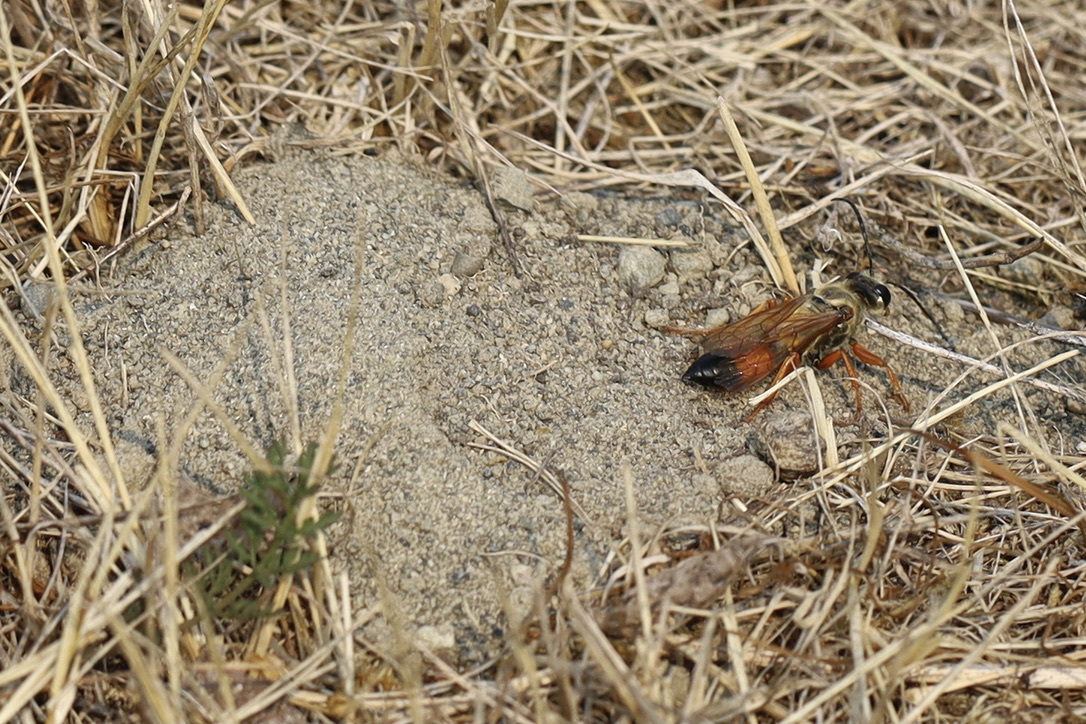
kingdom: Animalia
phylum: Arthropoda
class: Insecta
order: Hymenoptera
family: Sphecidae
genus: Sphex
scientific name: Sphex ichneumoneus
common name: Great golden digger wasp
